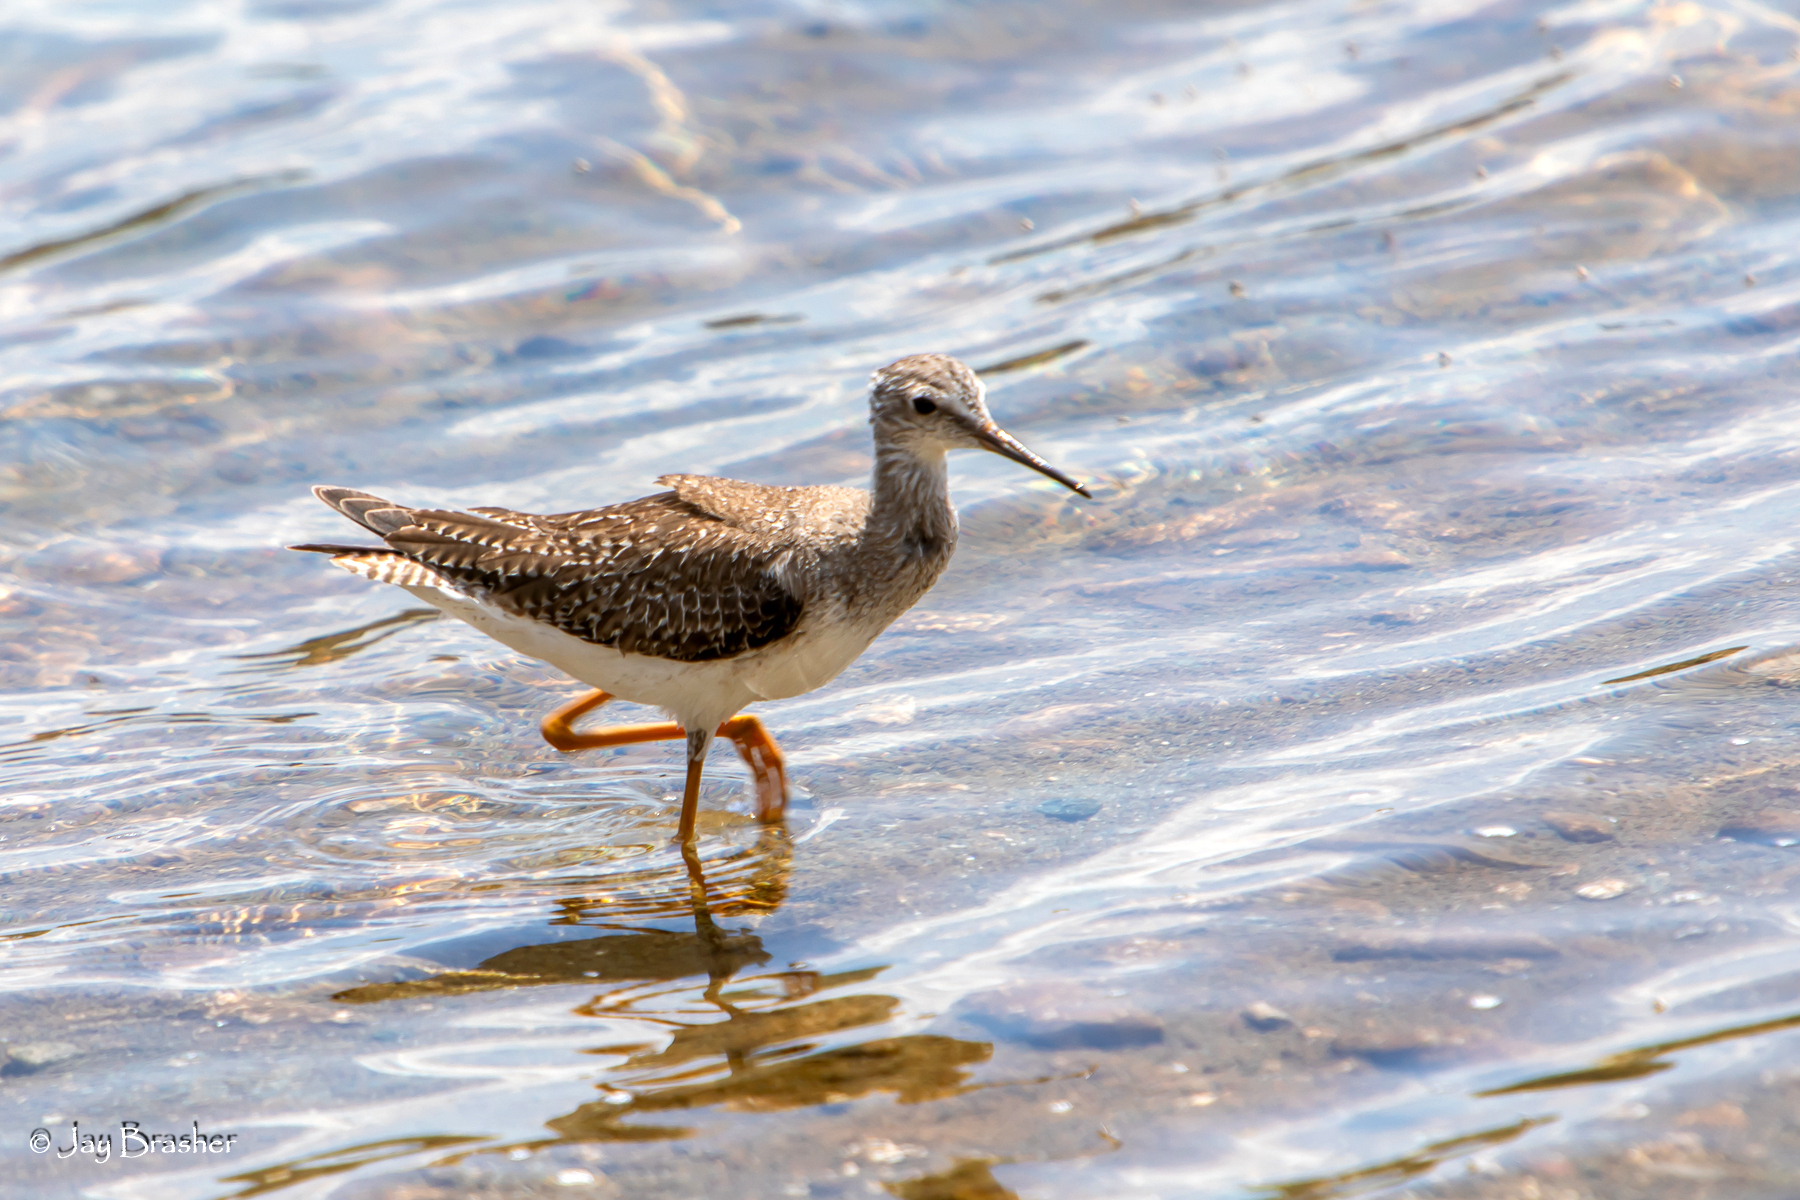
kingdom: Animalia
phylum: Chordata
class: Aves
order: Charadriiformes
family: Scolopacidae
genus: Tringa
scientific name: Tringa flavipes
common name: Lesser yellowlegs
